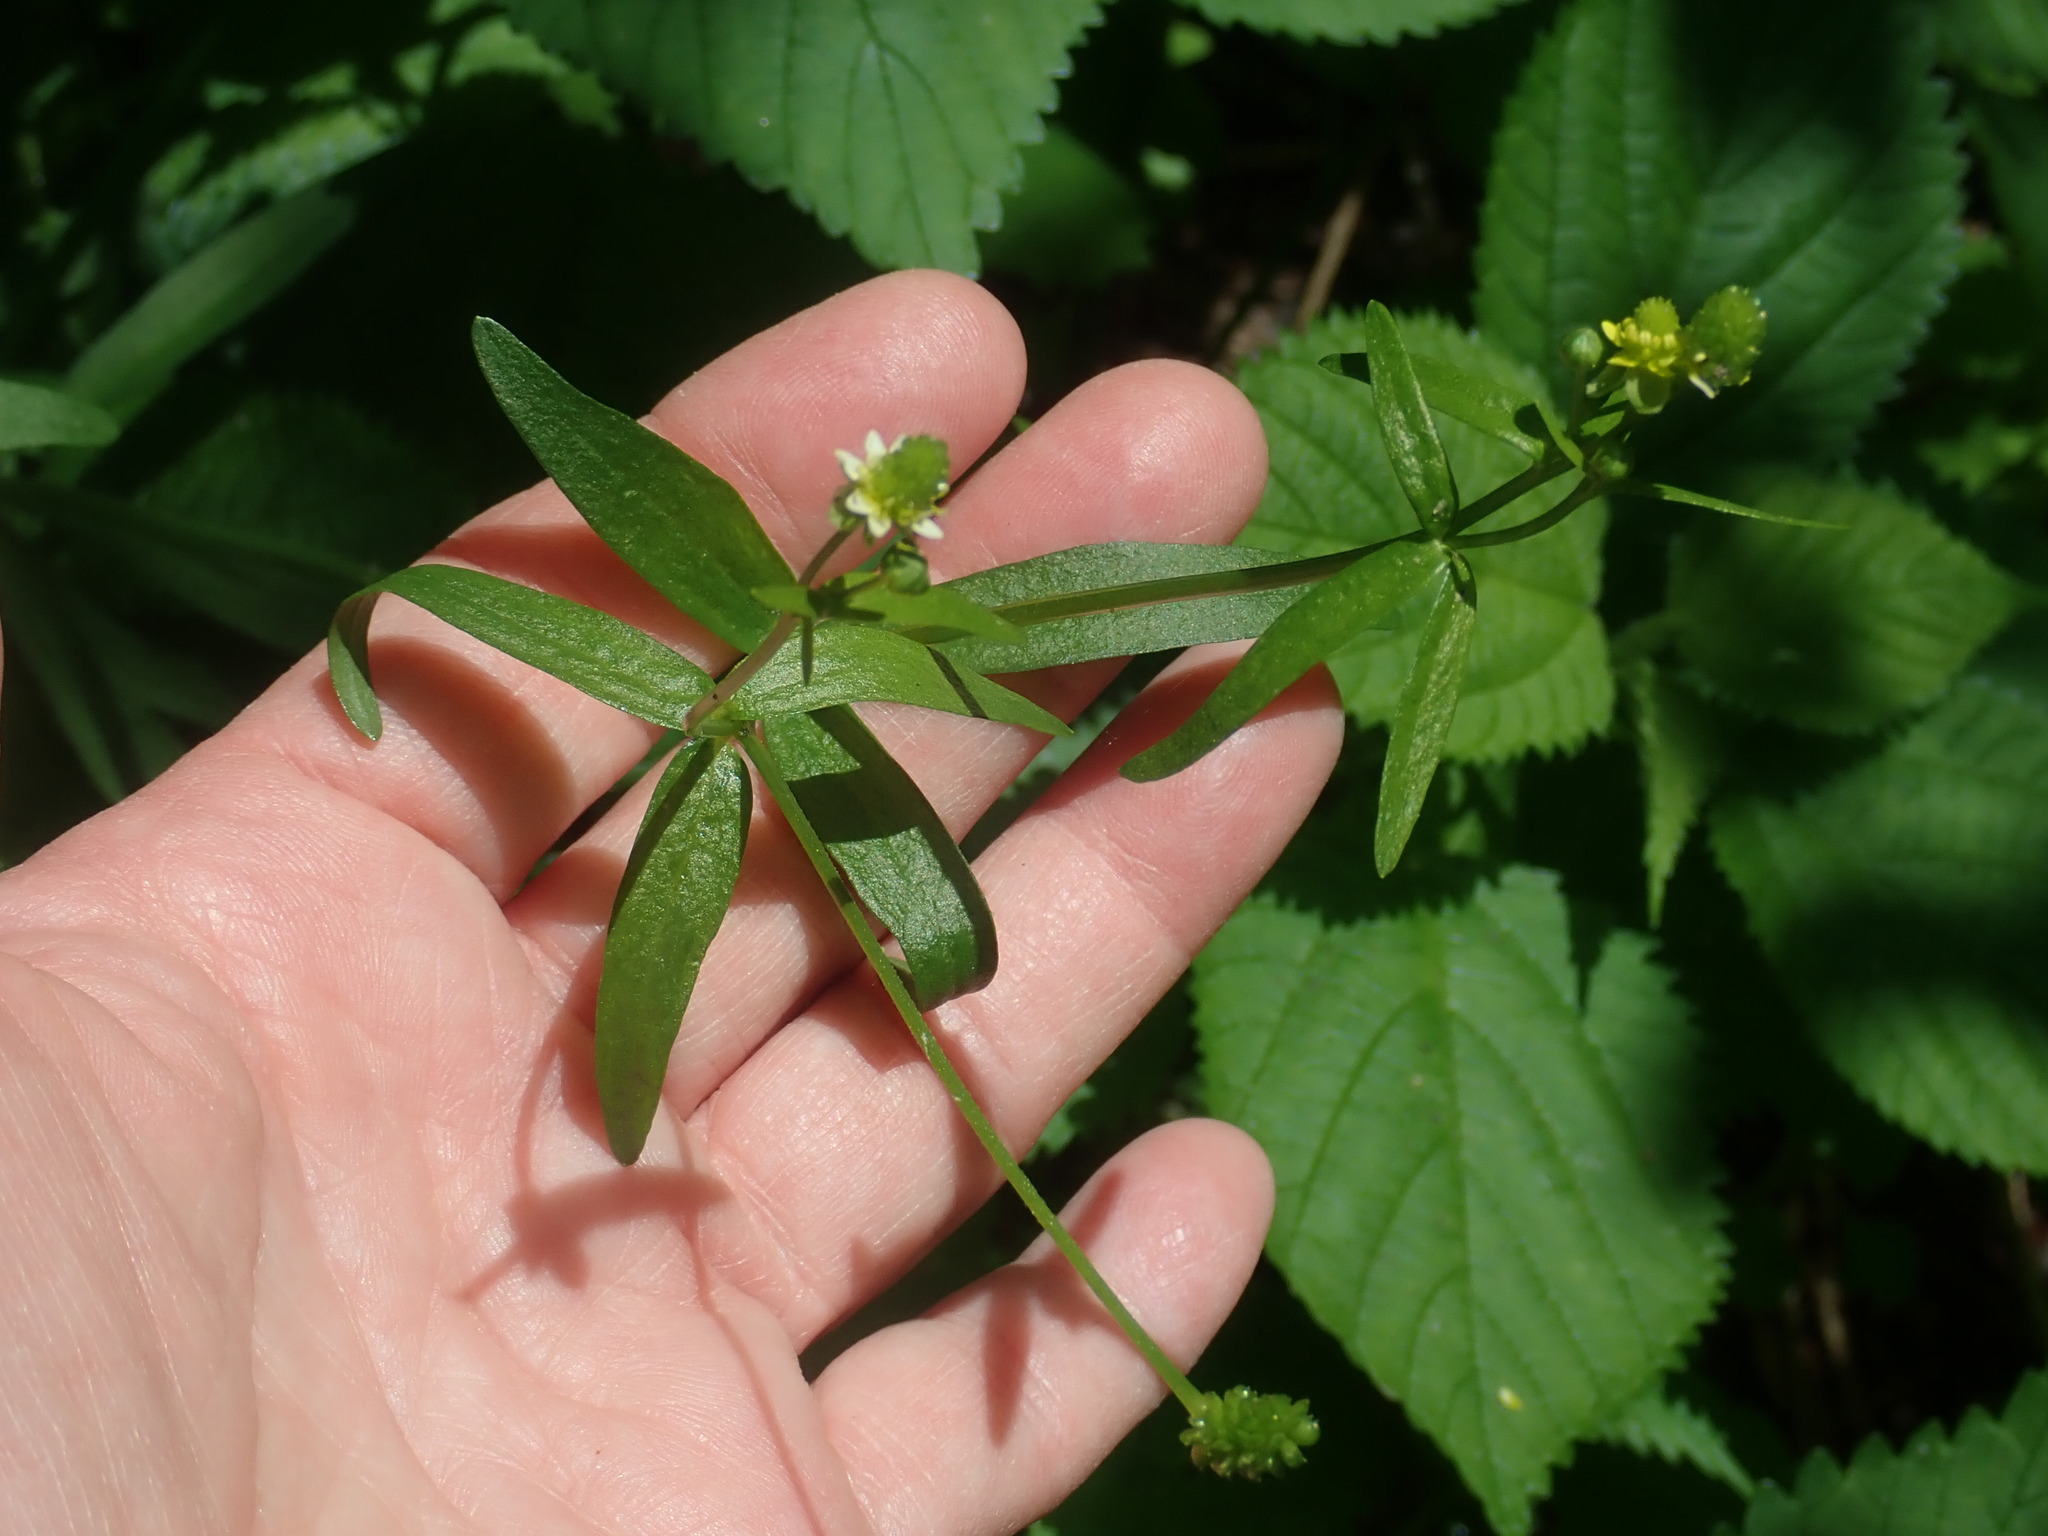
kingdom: Plantae
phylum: Tracheophyta
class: Magnoliopsida
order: Ranunculales
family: Ranunculaceae
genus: Ranunculus
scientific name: Ranunculus abortivus
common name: Early wood buttercup
